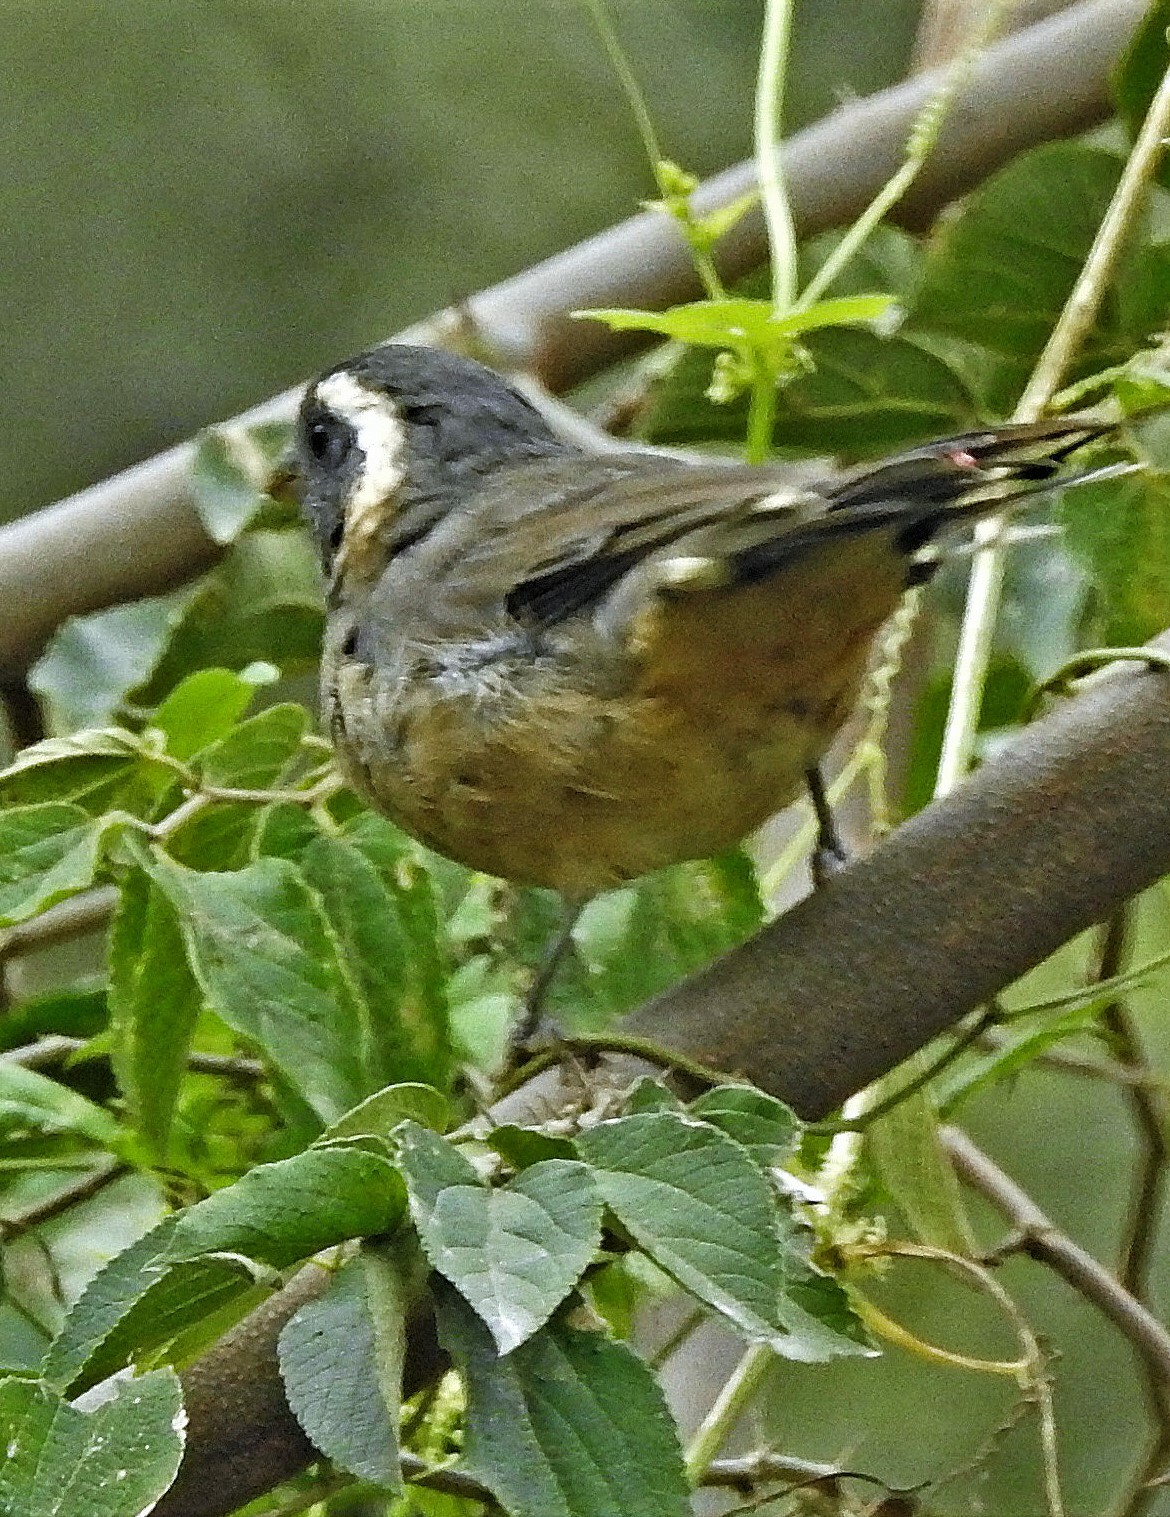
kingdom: Animalia
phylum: Chordata
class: Aves
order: Passeriformes
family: Thraupidae
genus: Saltator
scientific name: Saltator aurantiirostris
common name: Golden-billed saltator
